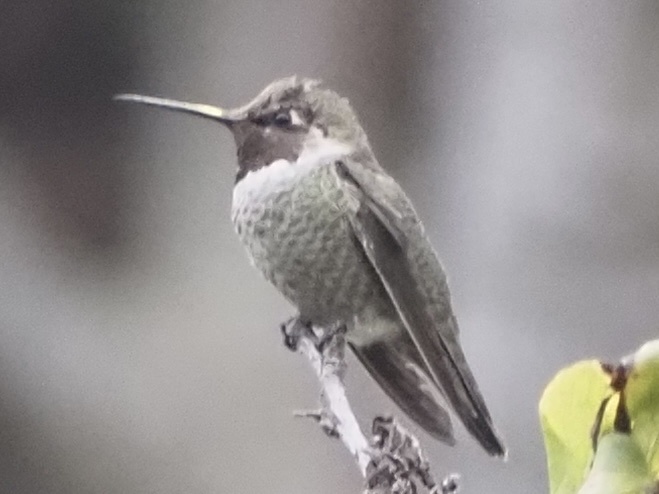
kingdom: Animalia
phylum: Chordata
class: Aves
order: Apodiformes
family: Trochilidae
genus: Calypte
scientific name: Calypte anna
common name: Anna's hummingbird
